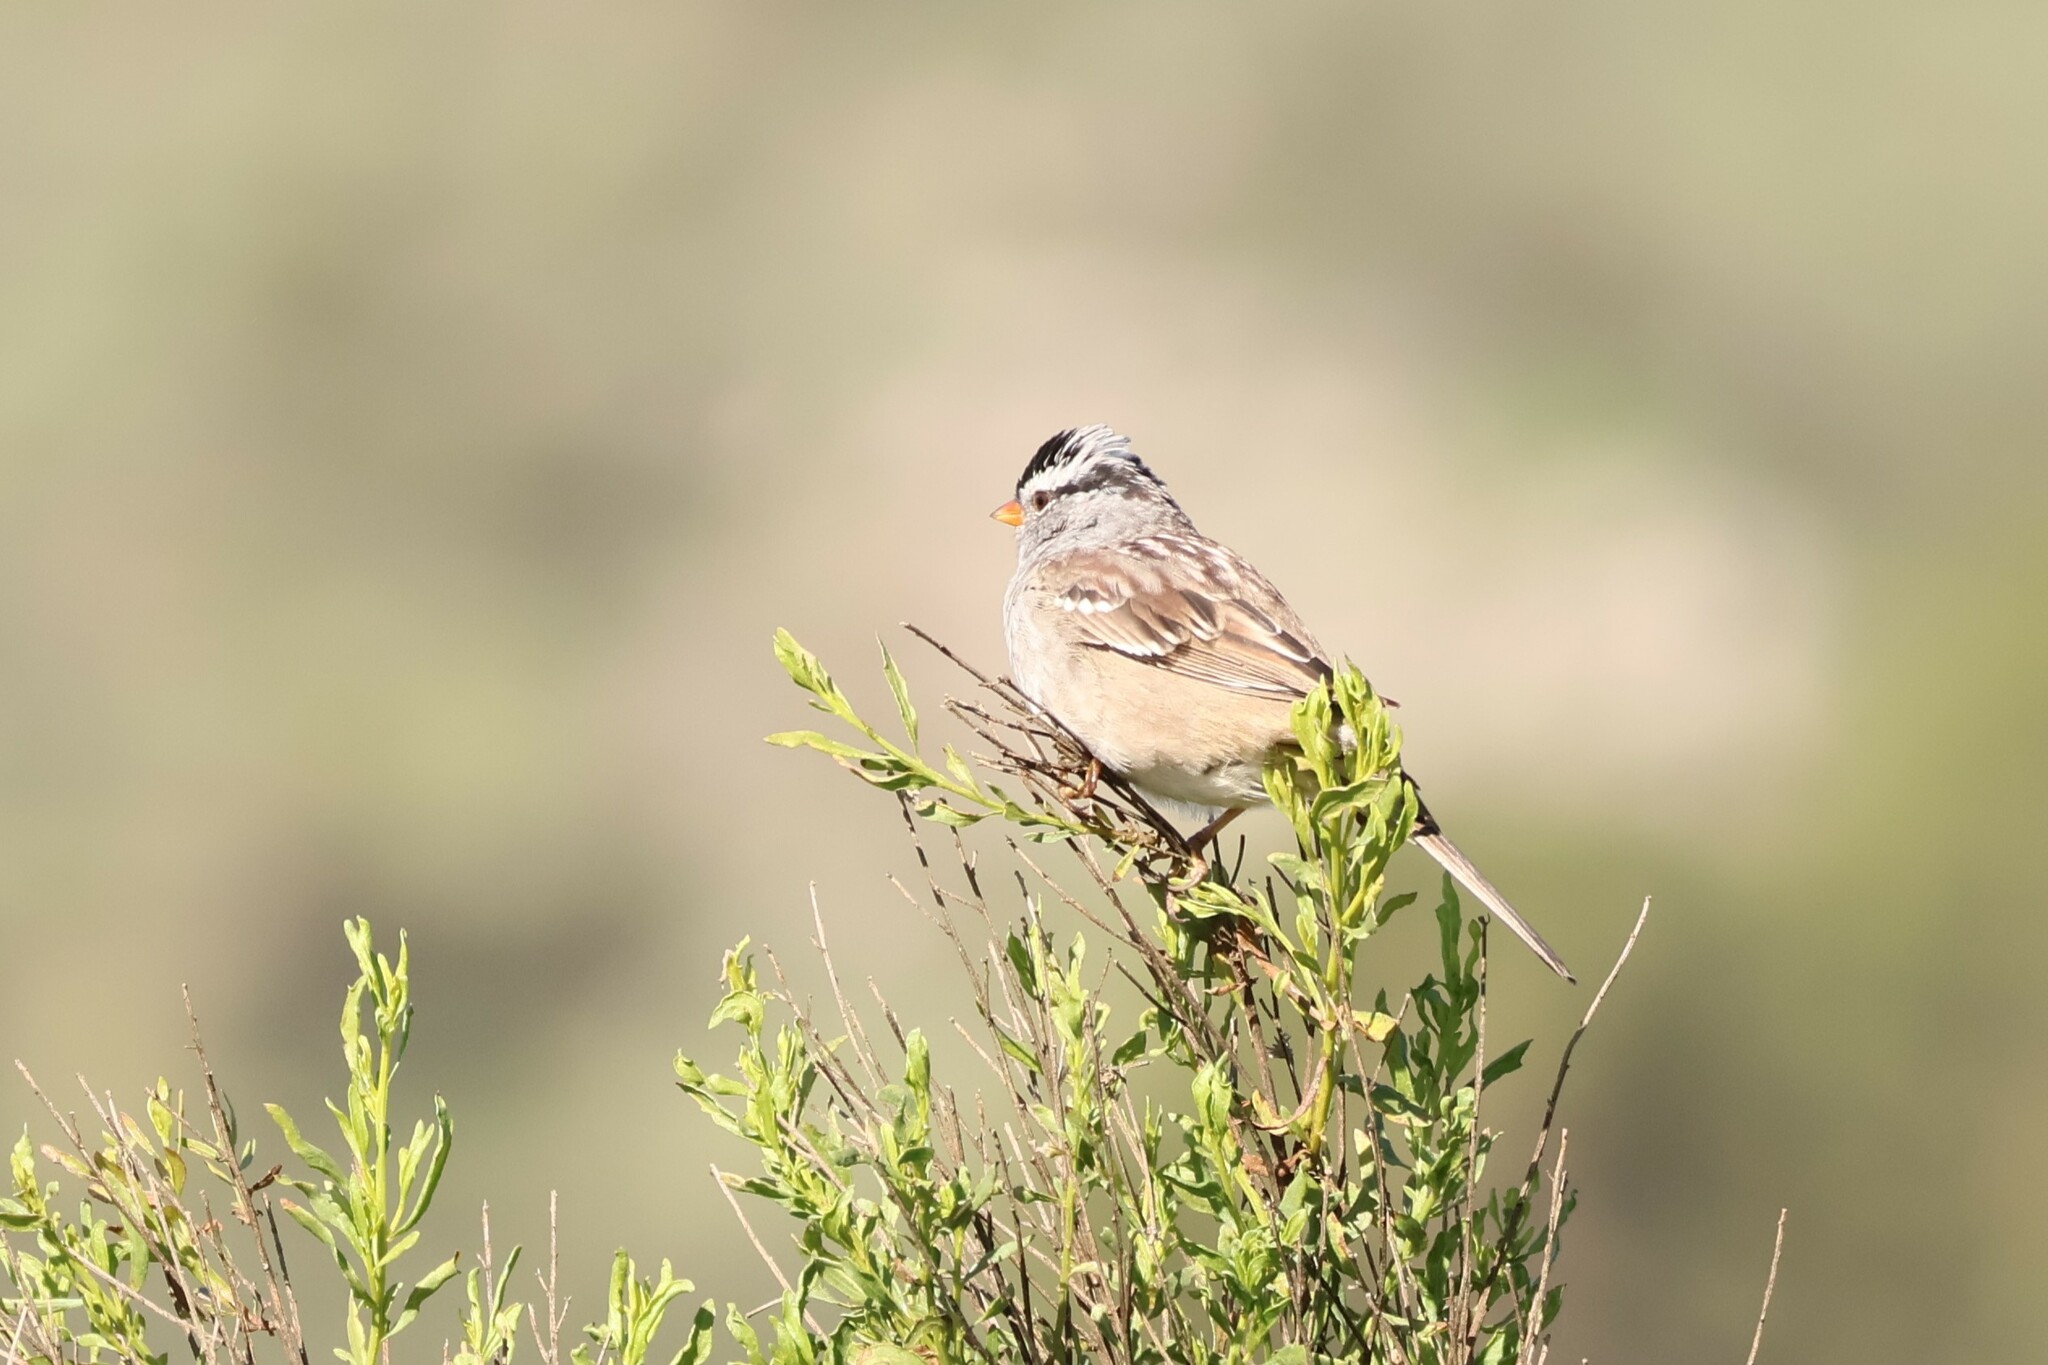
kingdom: Animalia
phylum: Chordata
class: Aves
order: Passeriformes
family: Passerellidae
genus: Zonotrichia
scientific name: Zonotrichia leucophrys
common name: White-crowned sparrow
